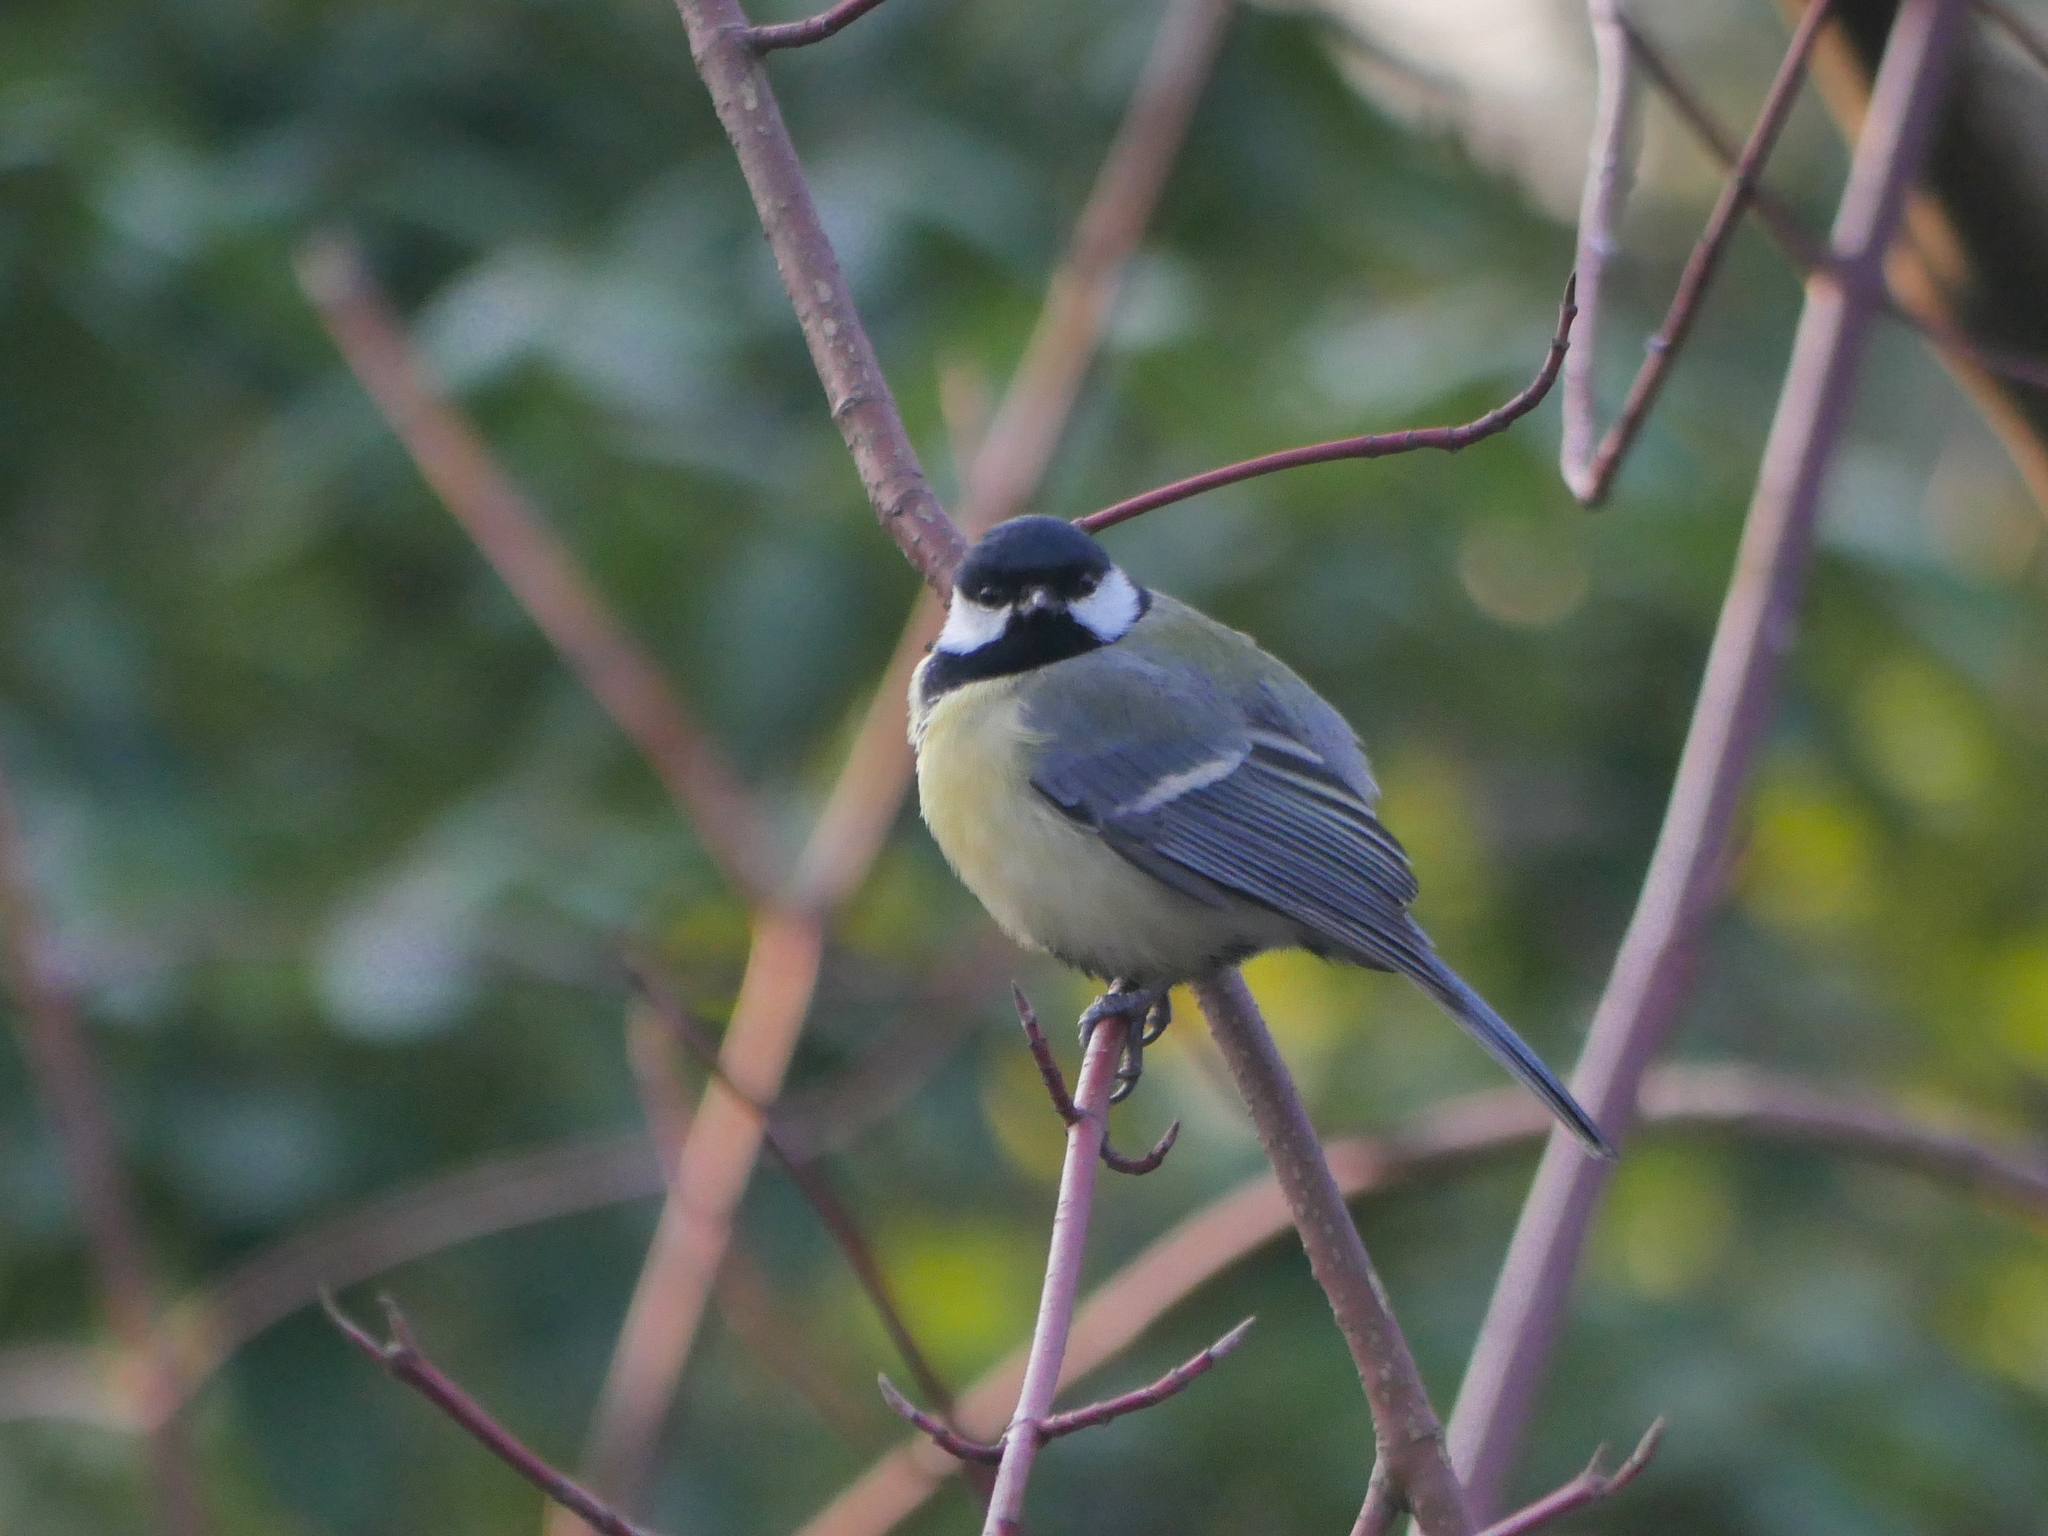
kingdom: Animalia
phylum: Chordata
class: Aves
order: Passeriformes
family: Paridae
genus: Parus
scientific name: Parus major
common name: Great tit
